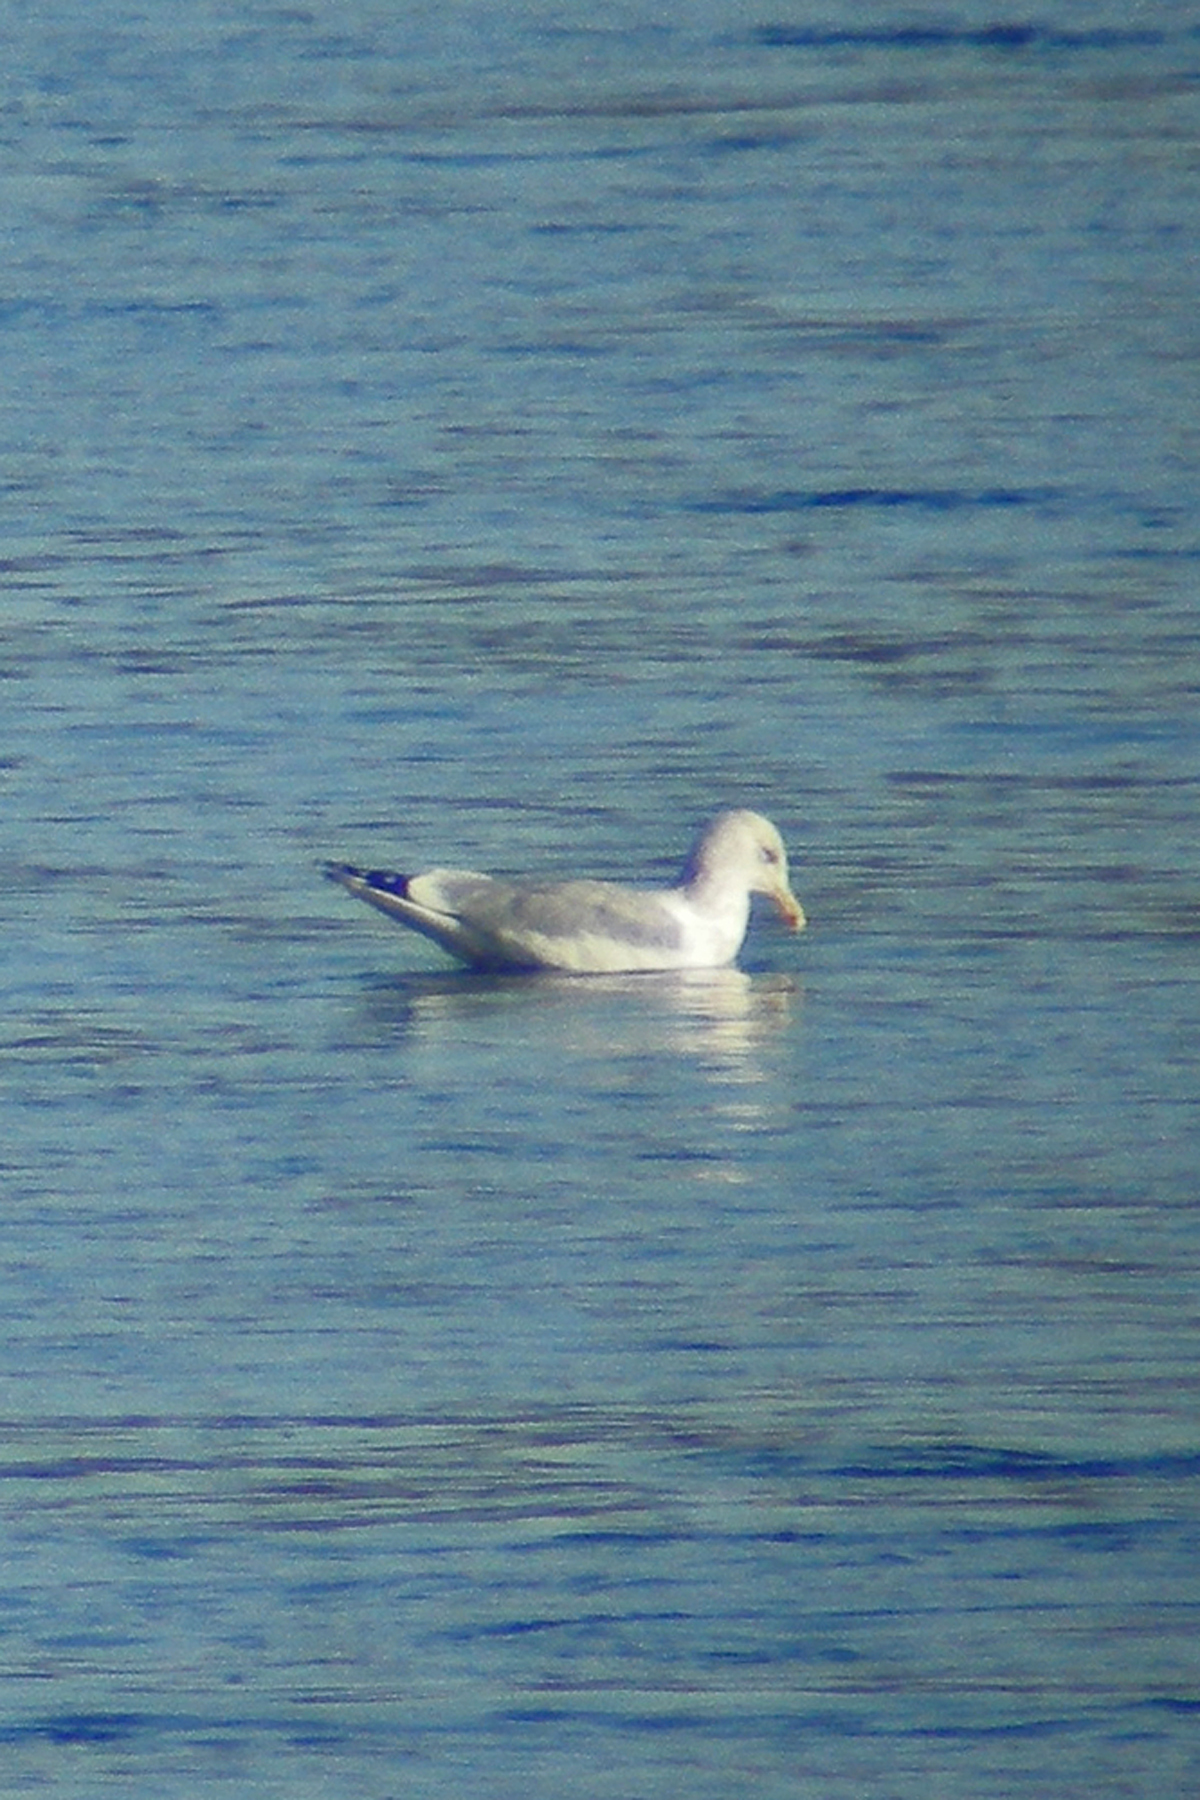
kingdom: Animalia
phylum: Chordata
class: Aves
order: Charadriiformes
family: Laridae
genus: Larus
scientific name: Larus argentatus
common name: Herring gull
